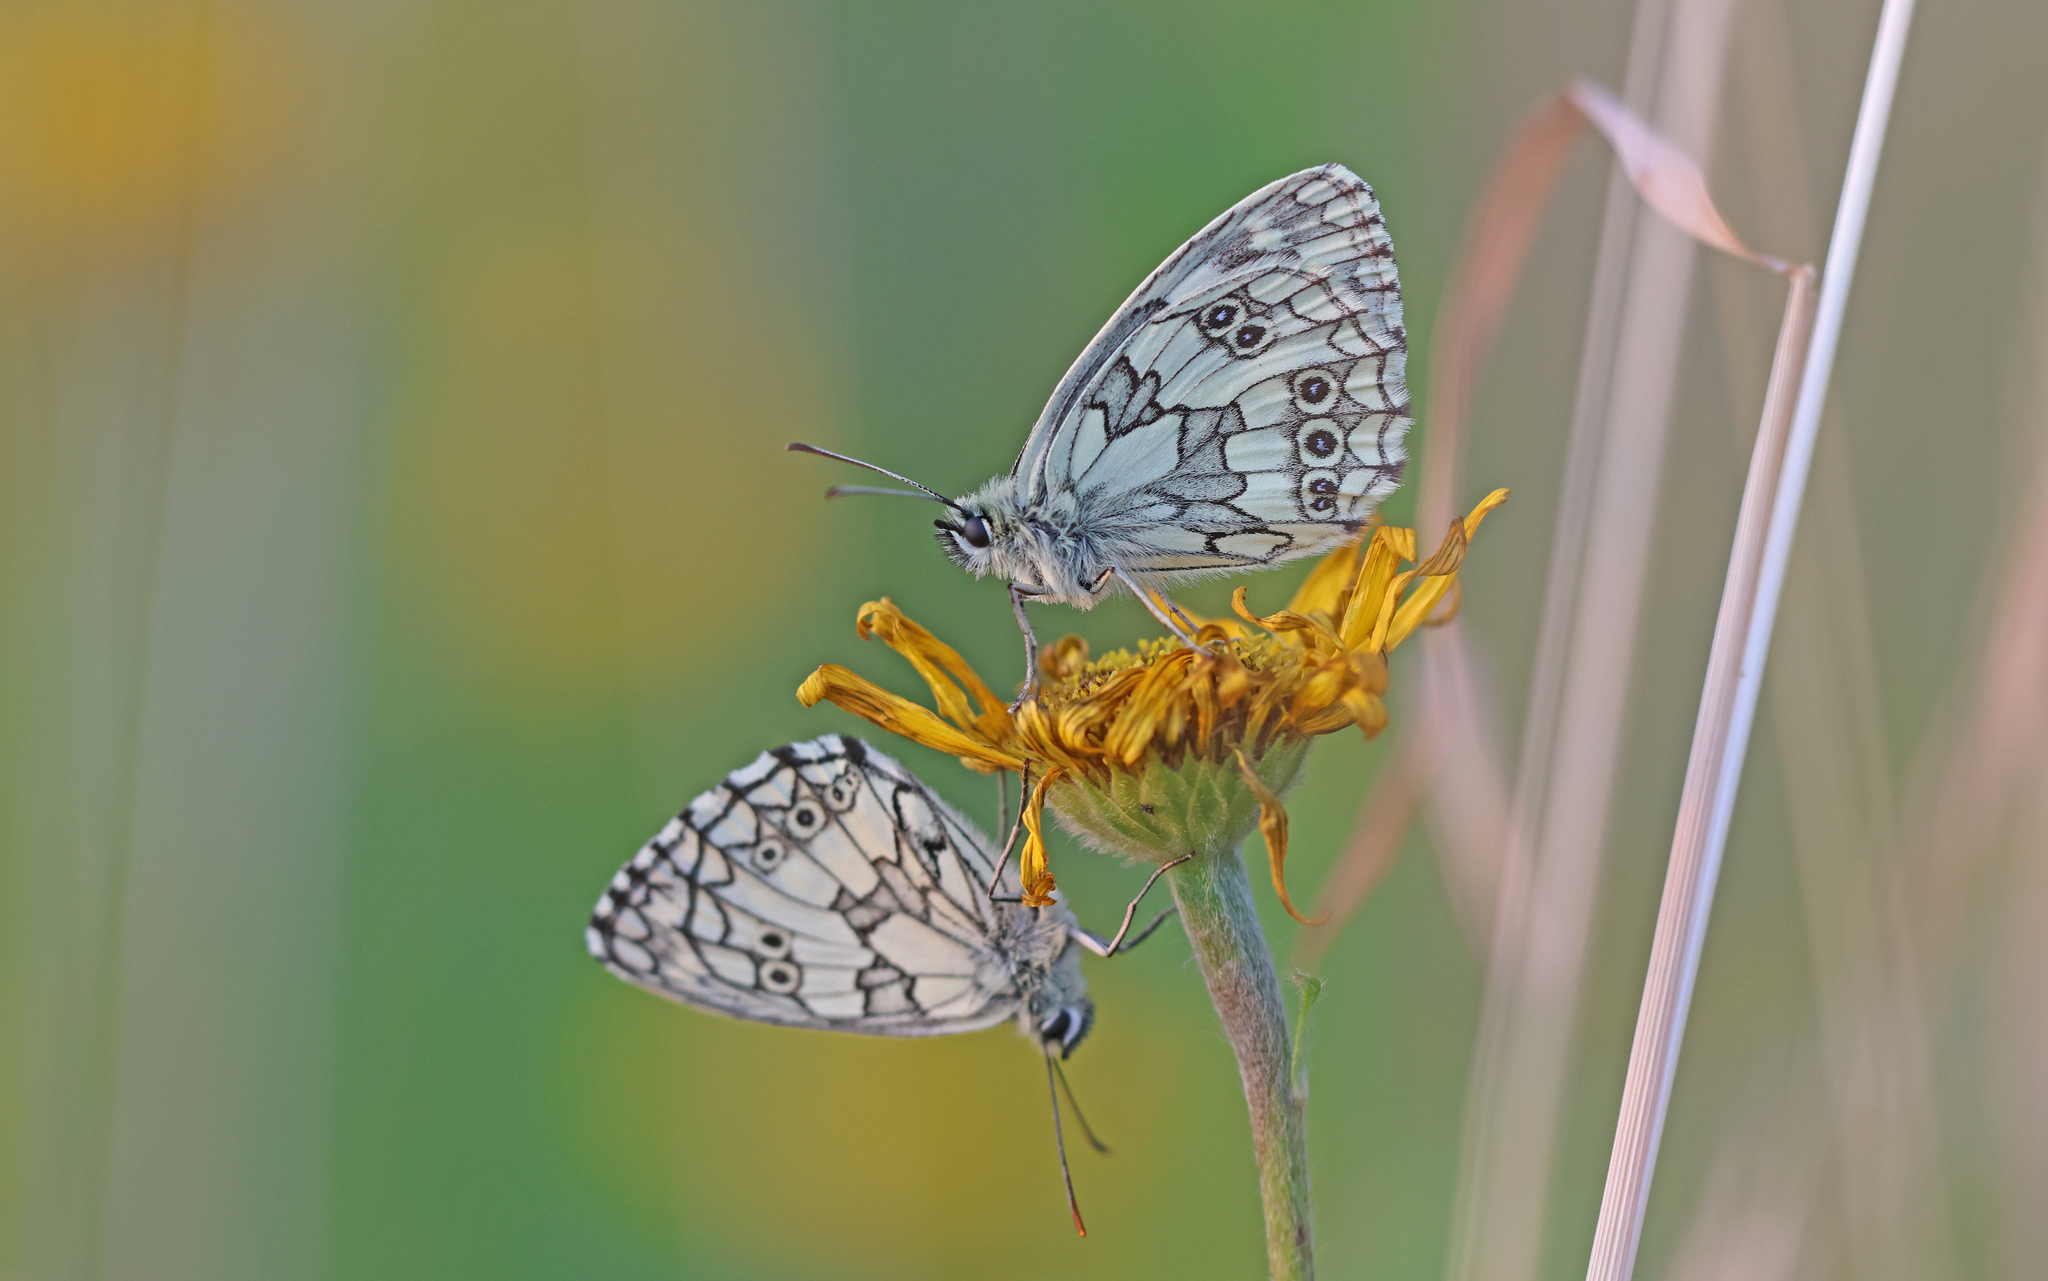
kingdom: Animalia
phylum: Arthropoda
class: Insecta
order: Lepidoptera
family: Nymphalidae
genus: Melanargia
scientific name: Melanargia galathea
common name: Marbled white
